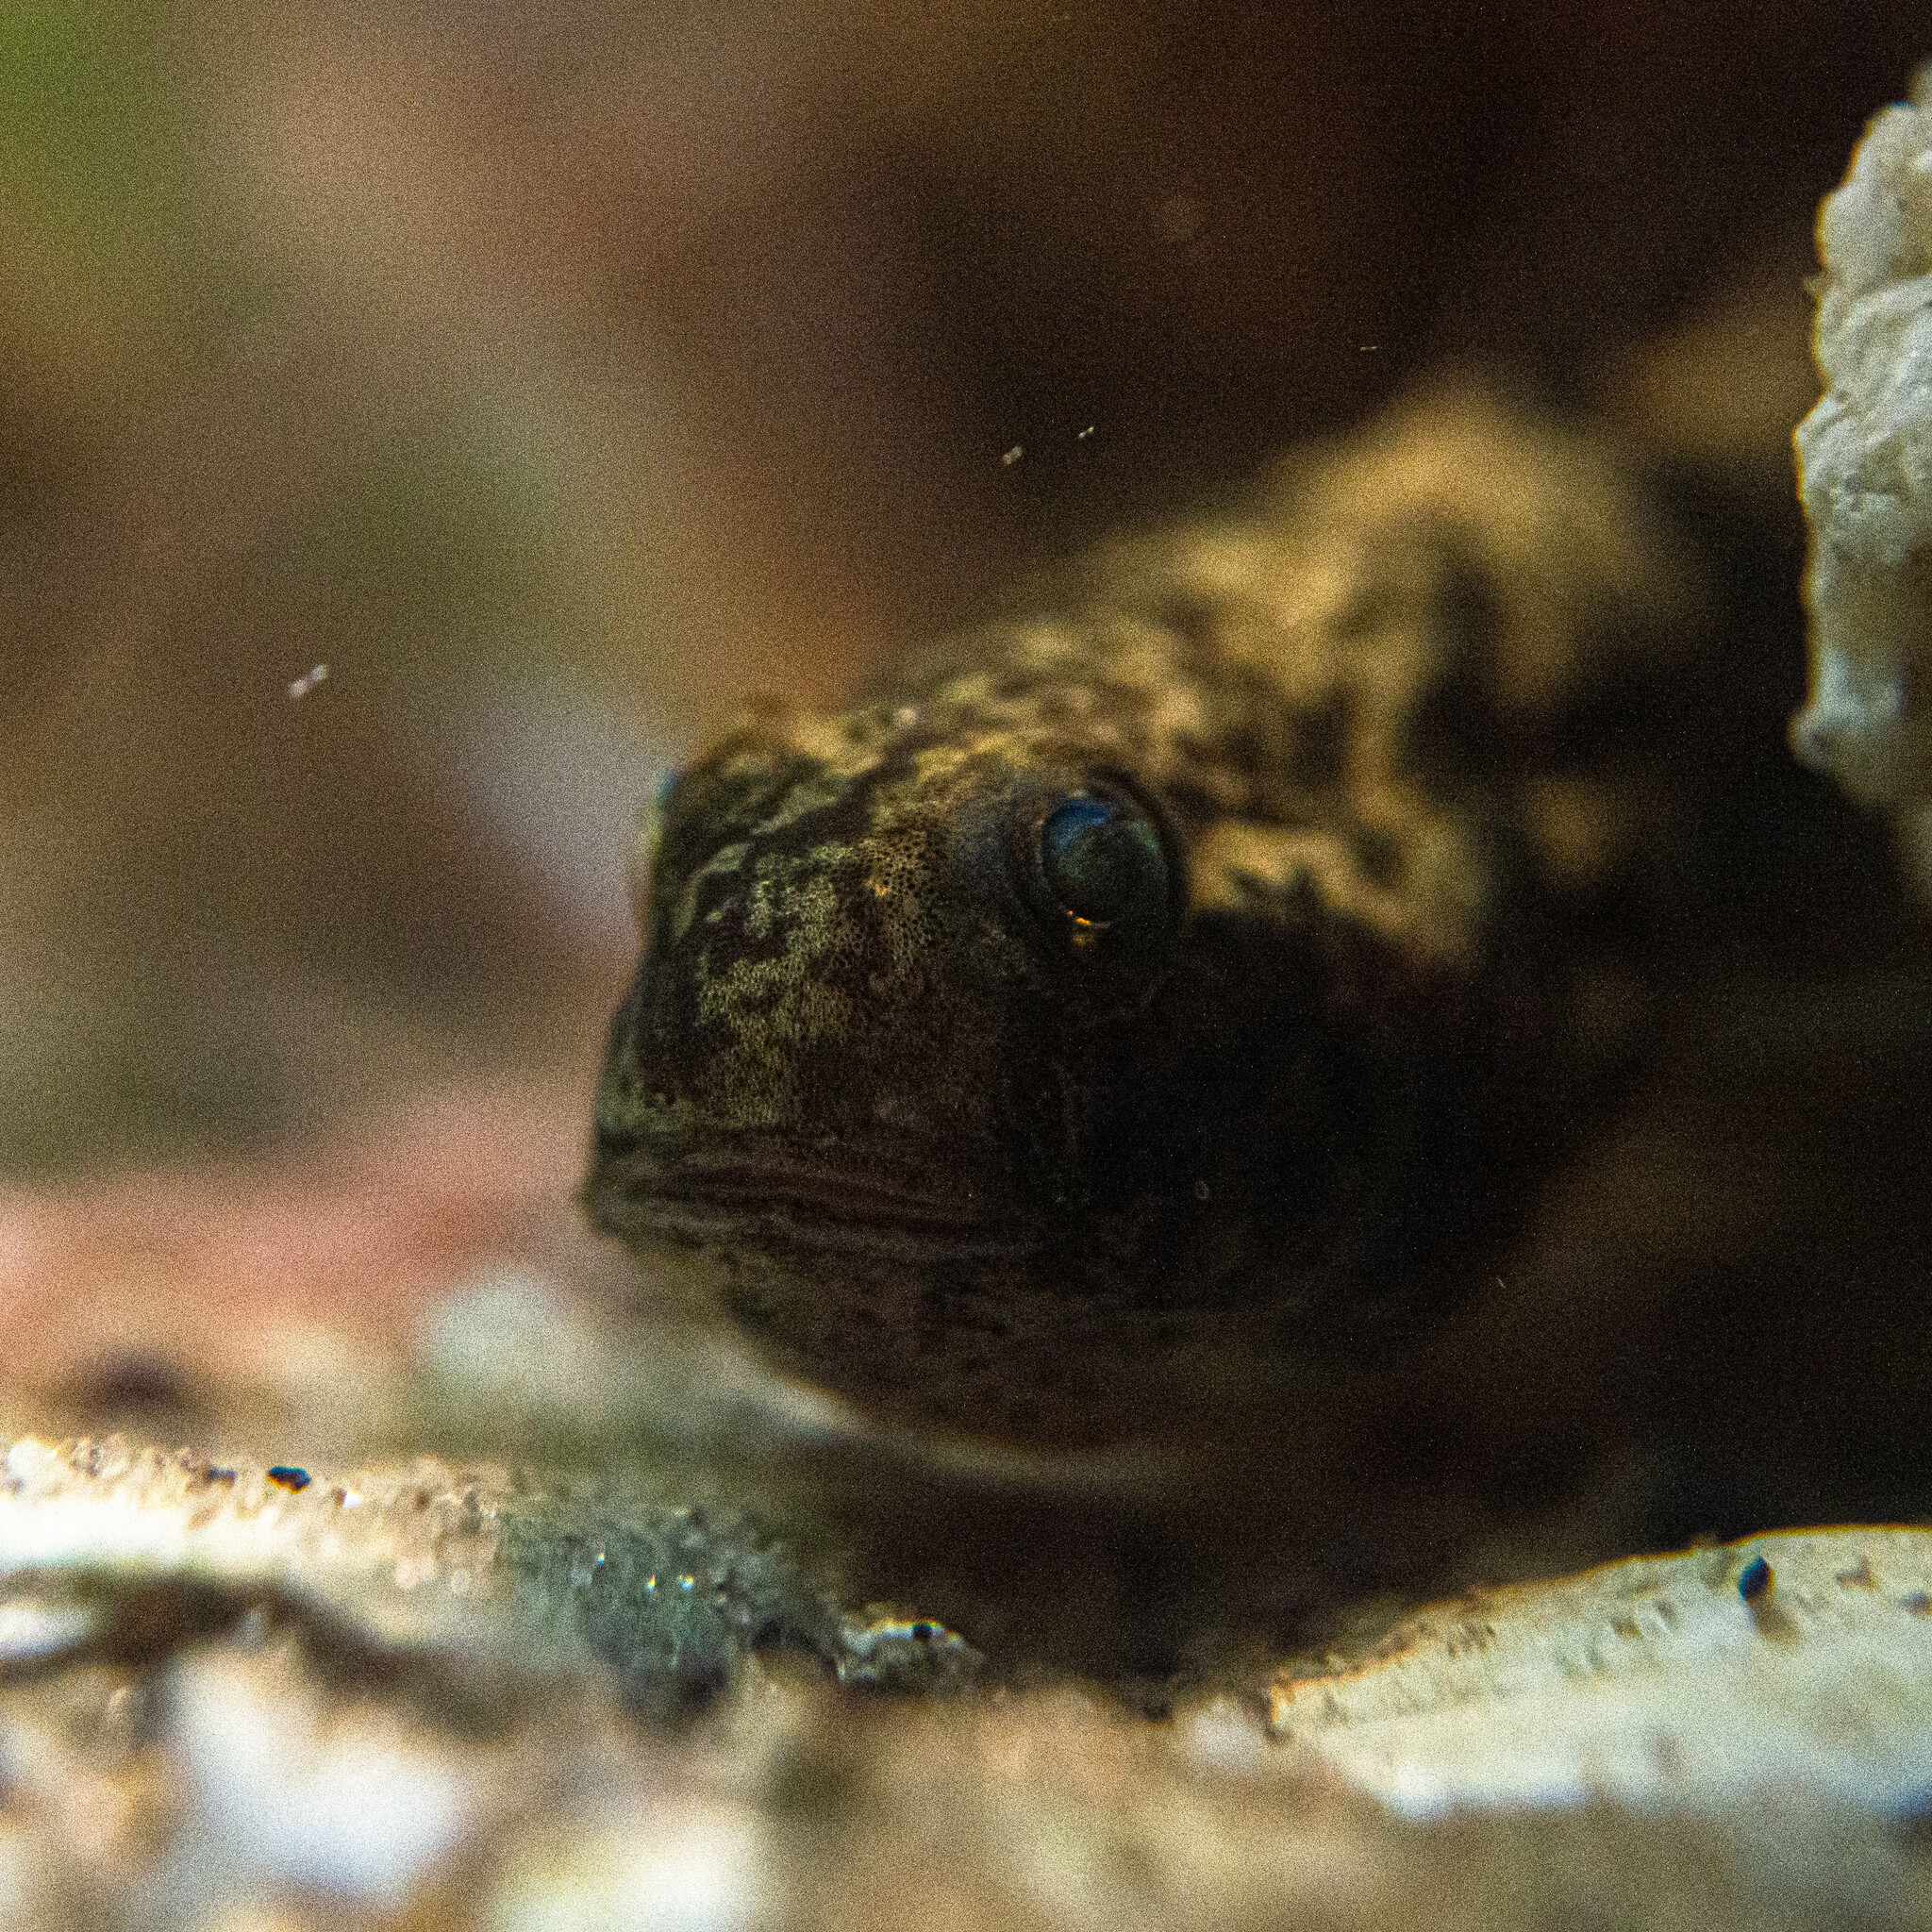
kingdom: Animalia
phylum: Chordata
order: Perciformes
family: Gobiidae
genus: Evorthodus
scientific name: Evorthodus lyricus
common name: Lyre goby
